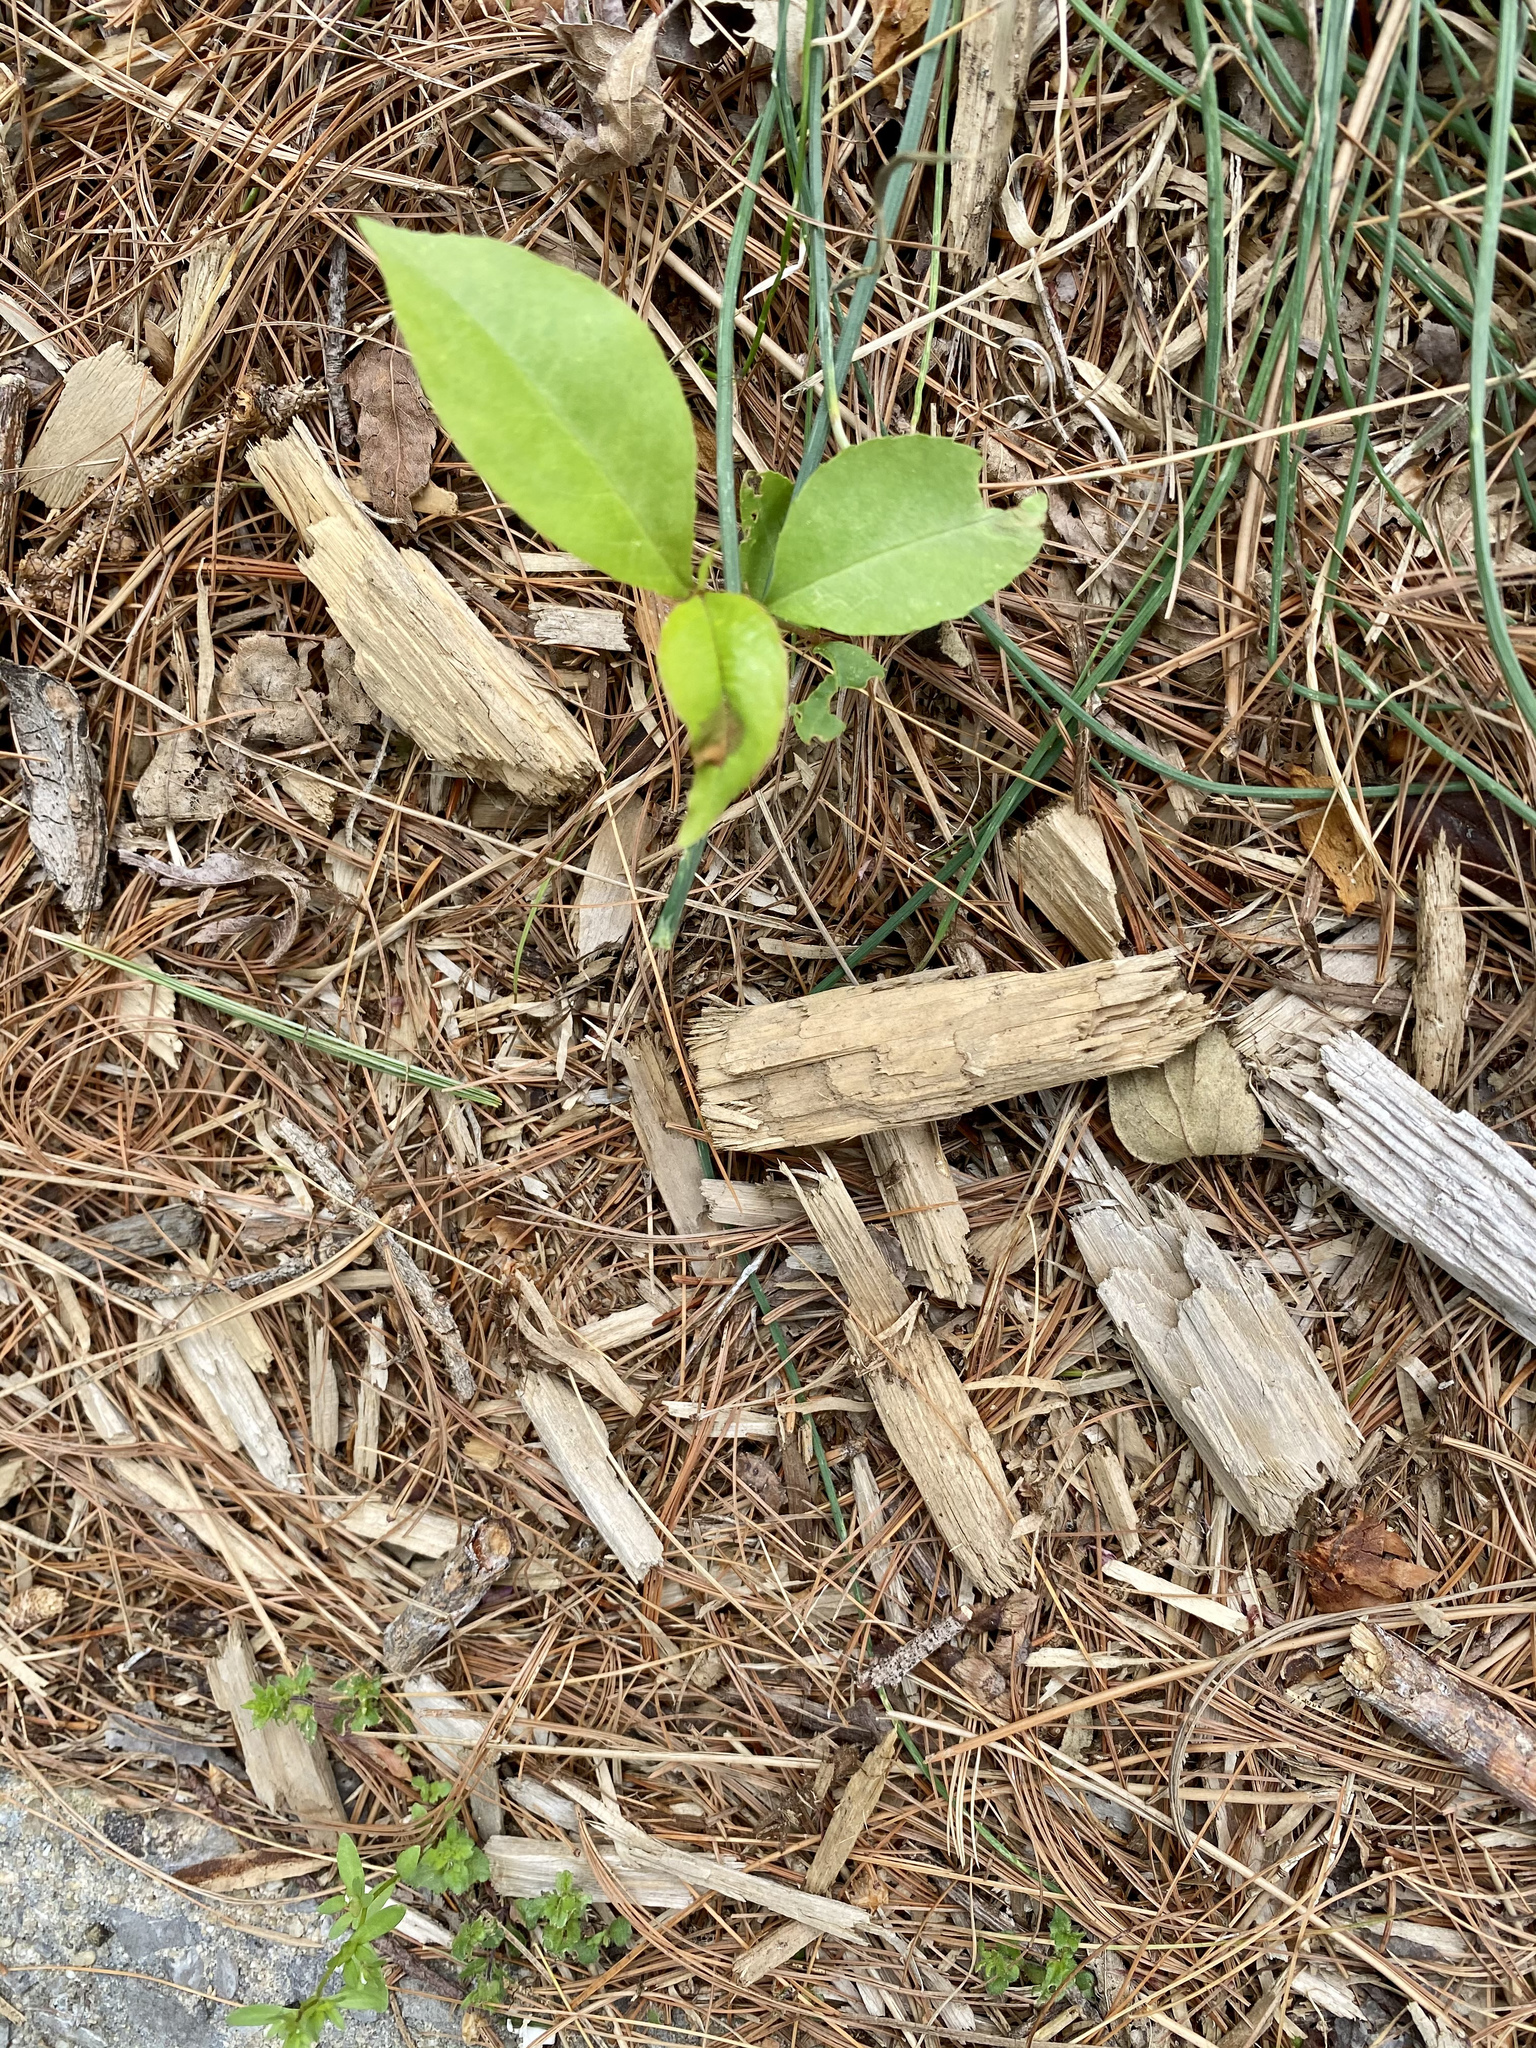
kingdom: Plantae
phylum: Tracheophyta
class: Magnoliopsida
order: Rosales
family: Rosaceae
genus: Prunus
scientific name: Prunus serotina
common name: Black cherry
